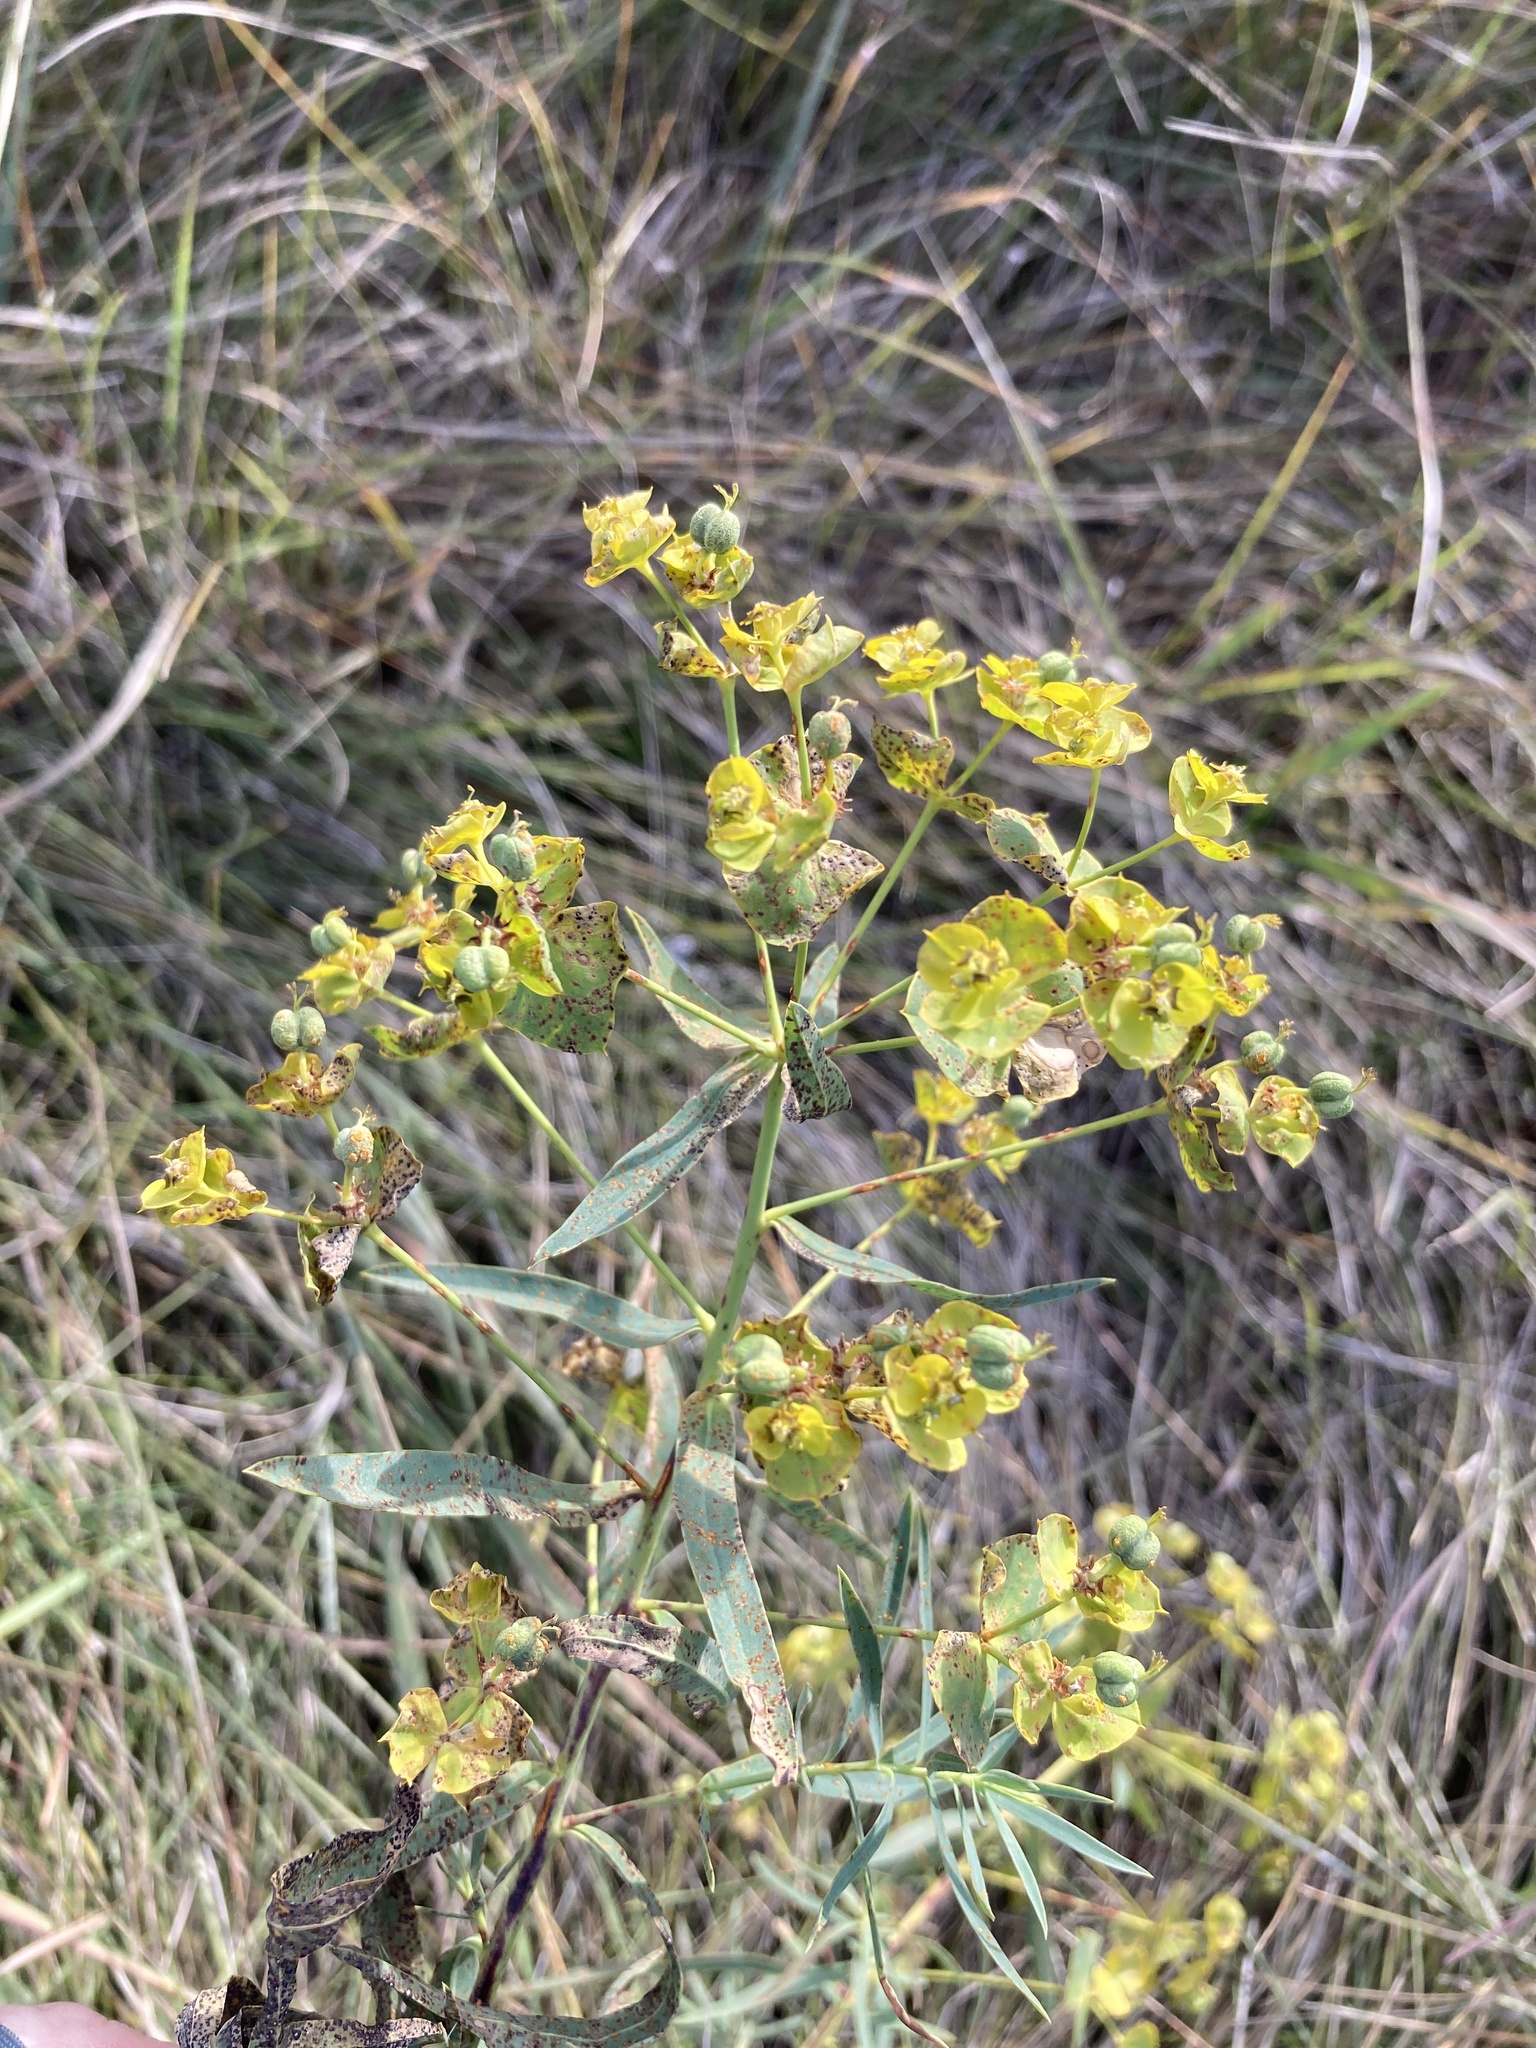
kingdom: Plantae
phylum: Tracheophyta
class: Magnoliopsida
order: Malpighiales
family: Euphorbiaceae
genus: Euphorbia
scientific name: Euphorbia virgata
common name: Leafy spurge
